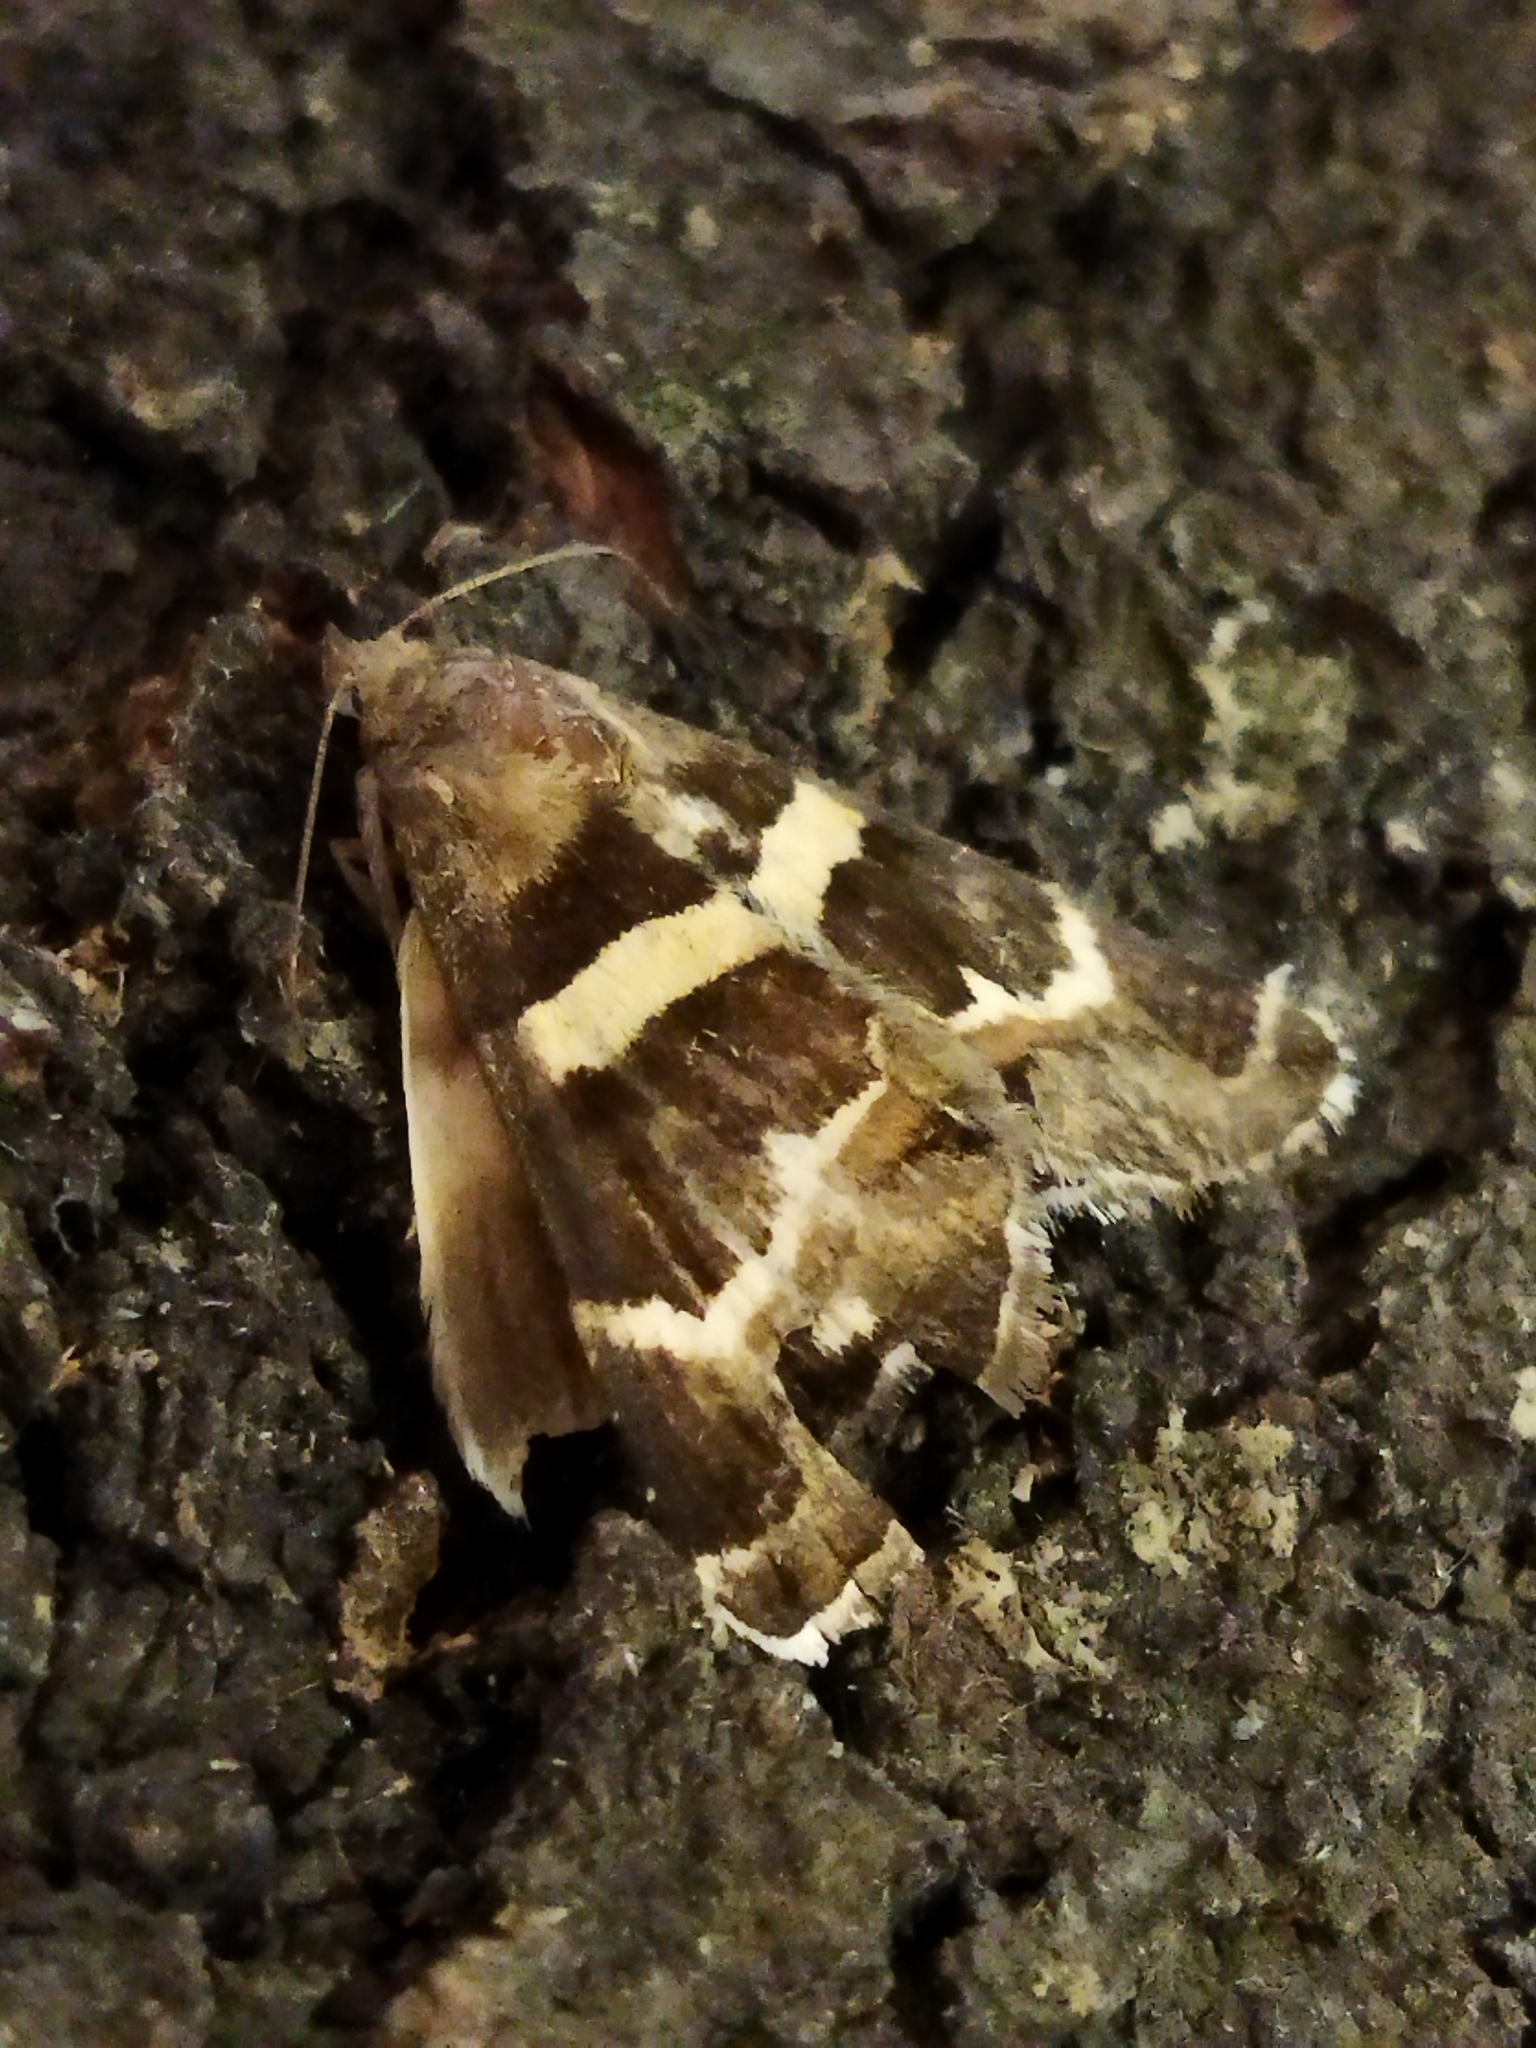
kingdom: Animalia
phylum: Arthropoda
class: Insecta
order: Lepidoptera
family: Erebidae
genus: Grammodes
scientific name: Grammodes stolida
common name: Geometrician
